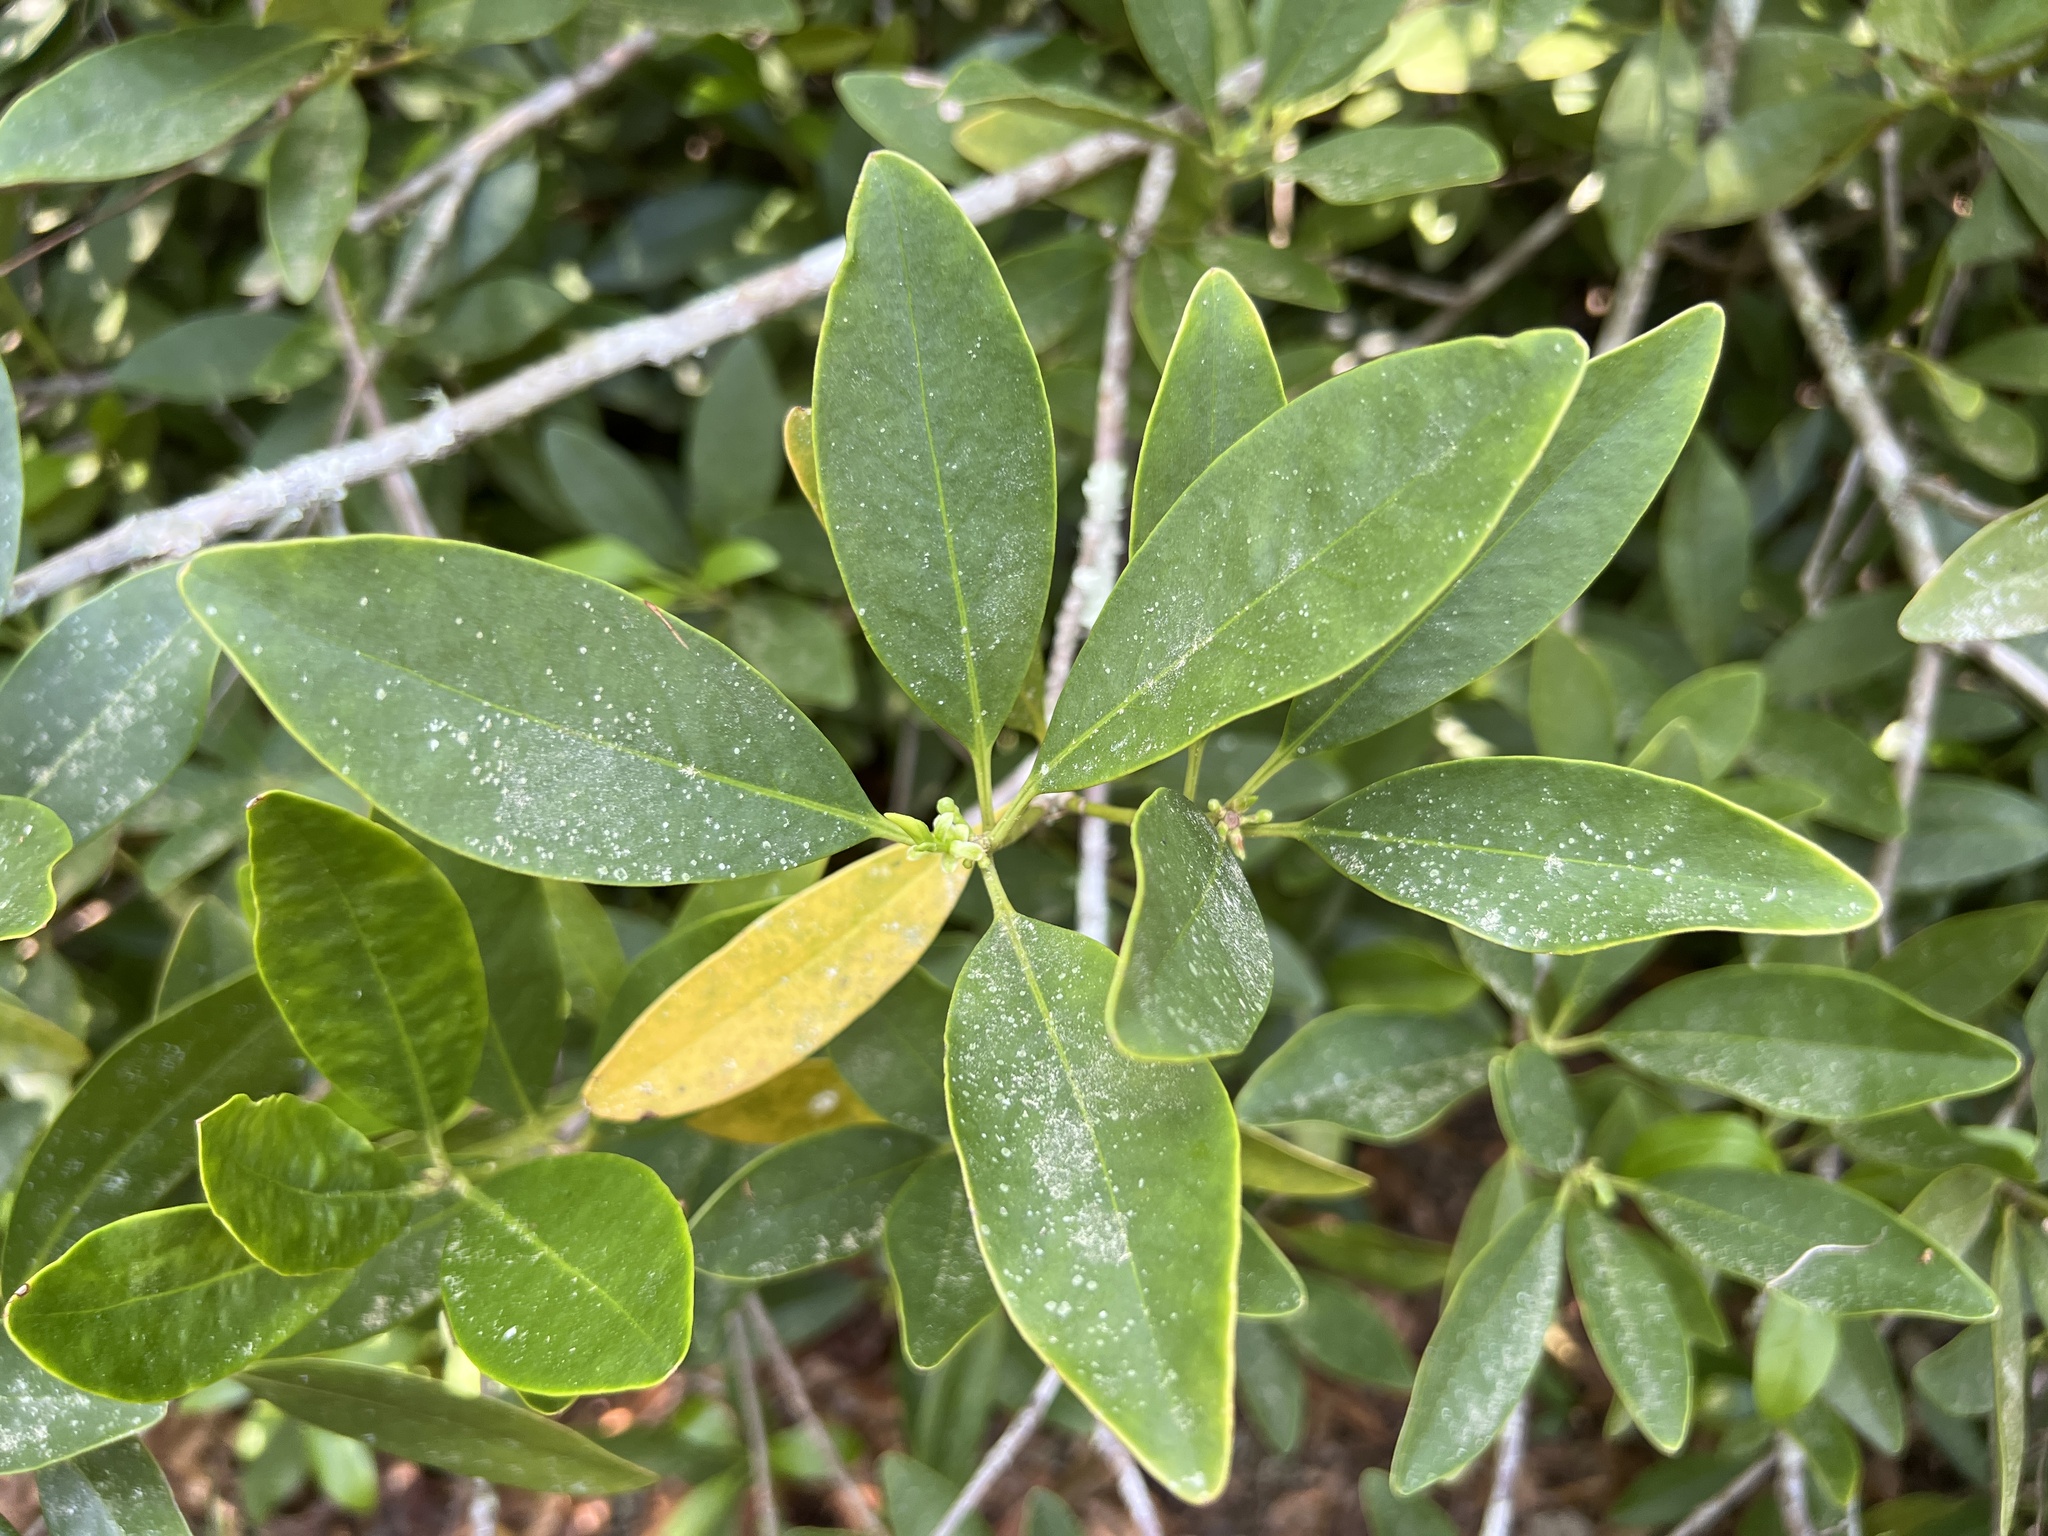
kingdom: Plantae
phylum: Tracheophyta
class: Magnoliopsida
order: Austrobaileyales
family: Schisandraceae
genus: Illicium
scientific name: Illicium floridanum
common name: Florida anisetree
